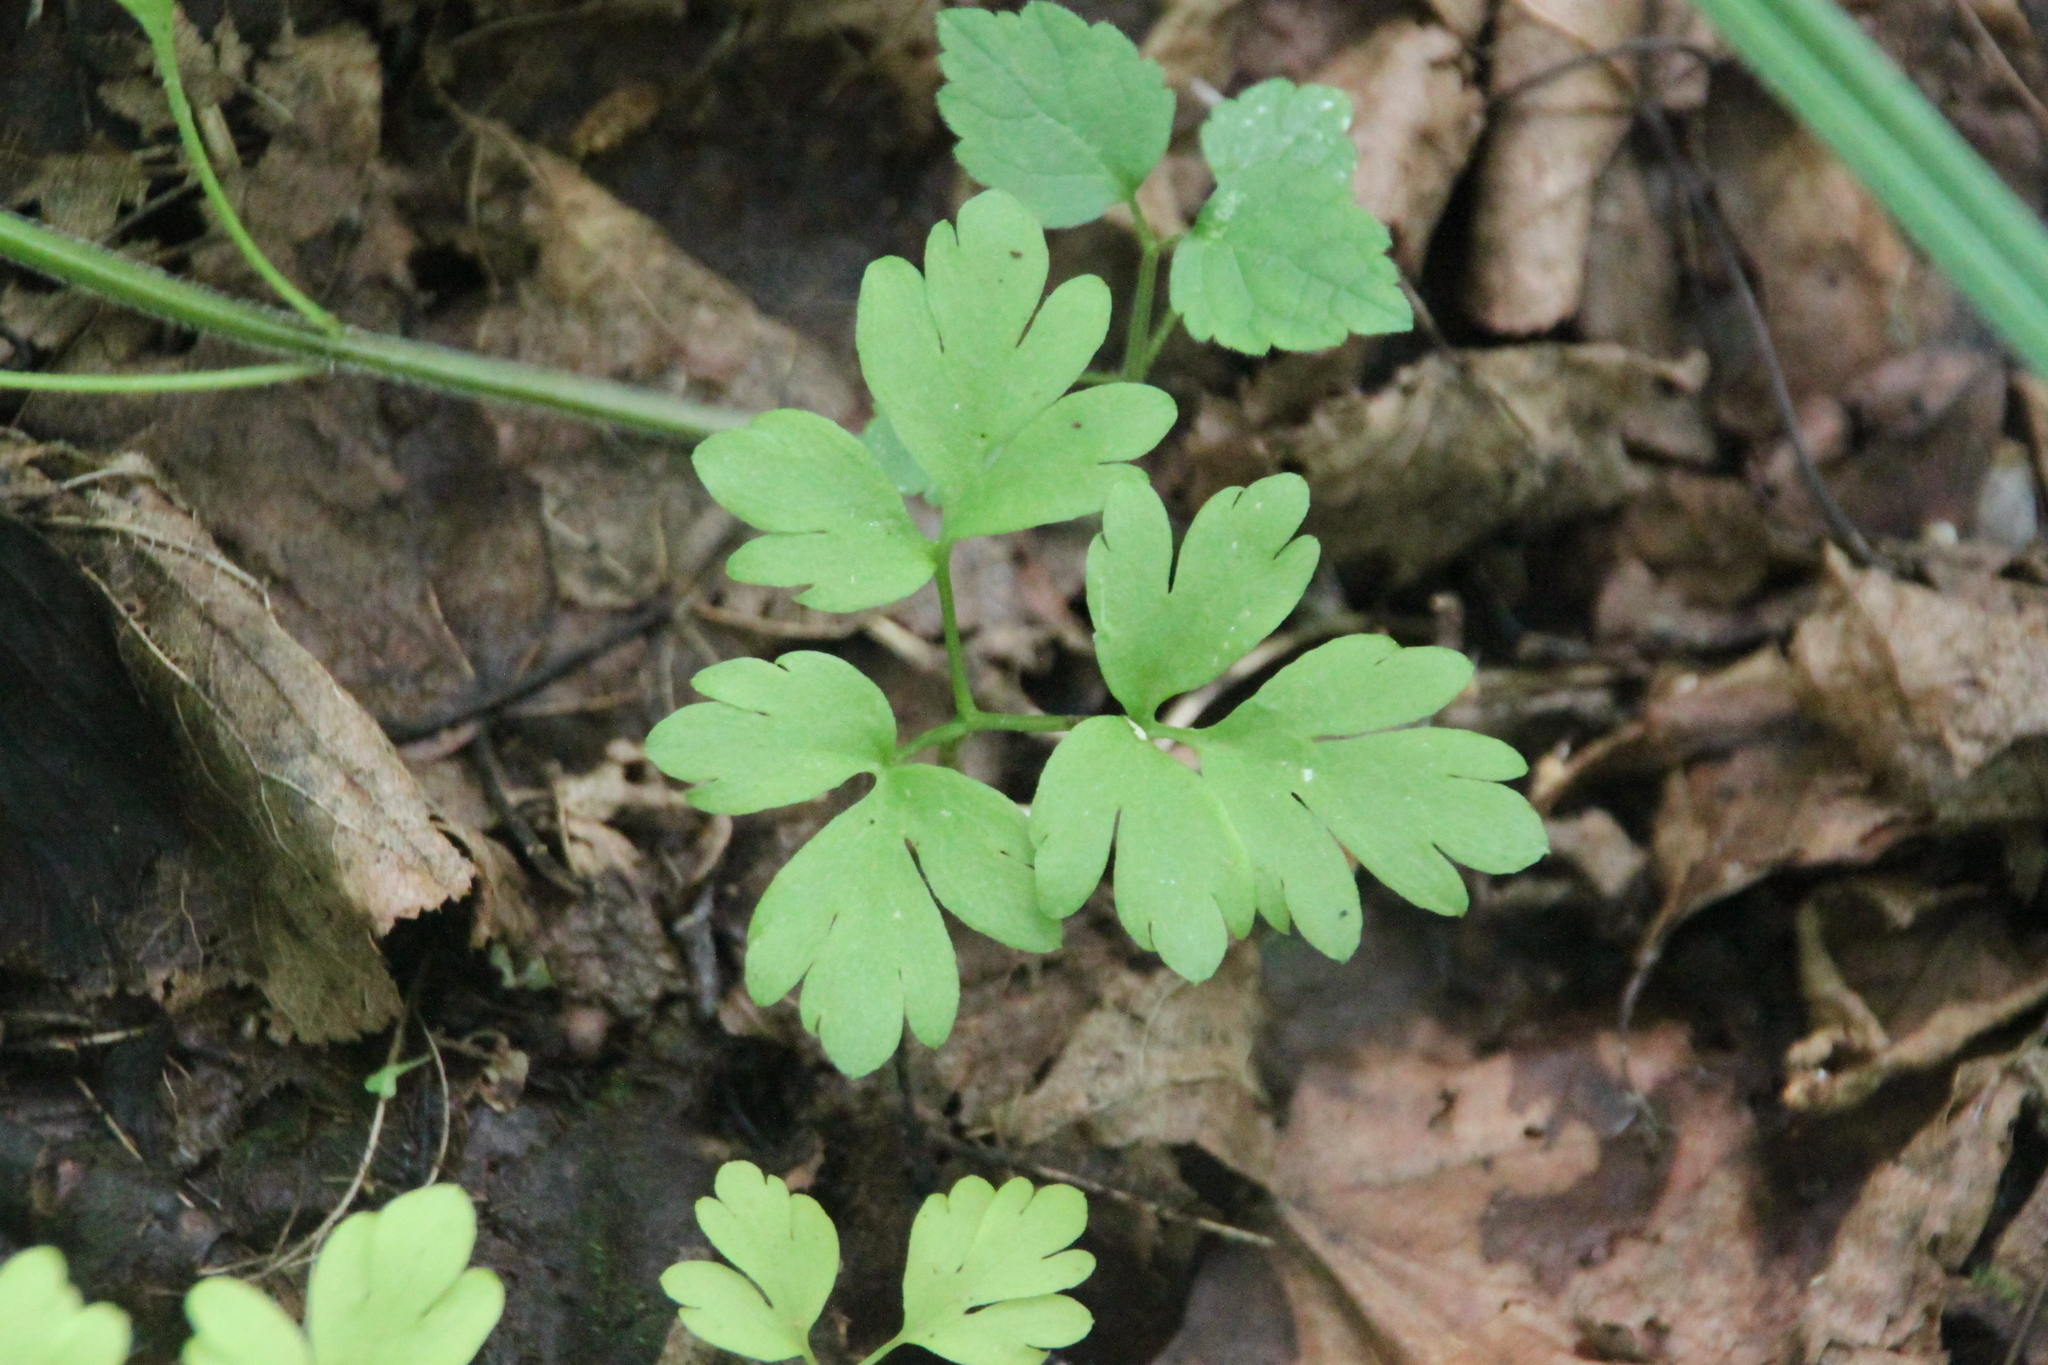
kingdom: Plantae
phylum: Tracheophyta
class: Magnoliopsida
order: Dipsacales
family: Viburnaceae
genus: Adoxa
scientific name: Adoxa moschatellina
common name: Moschatel
